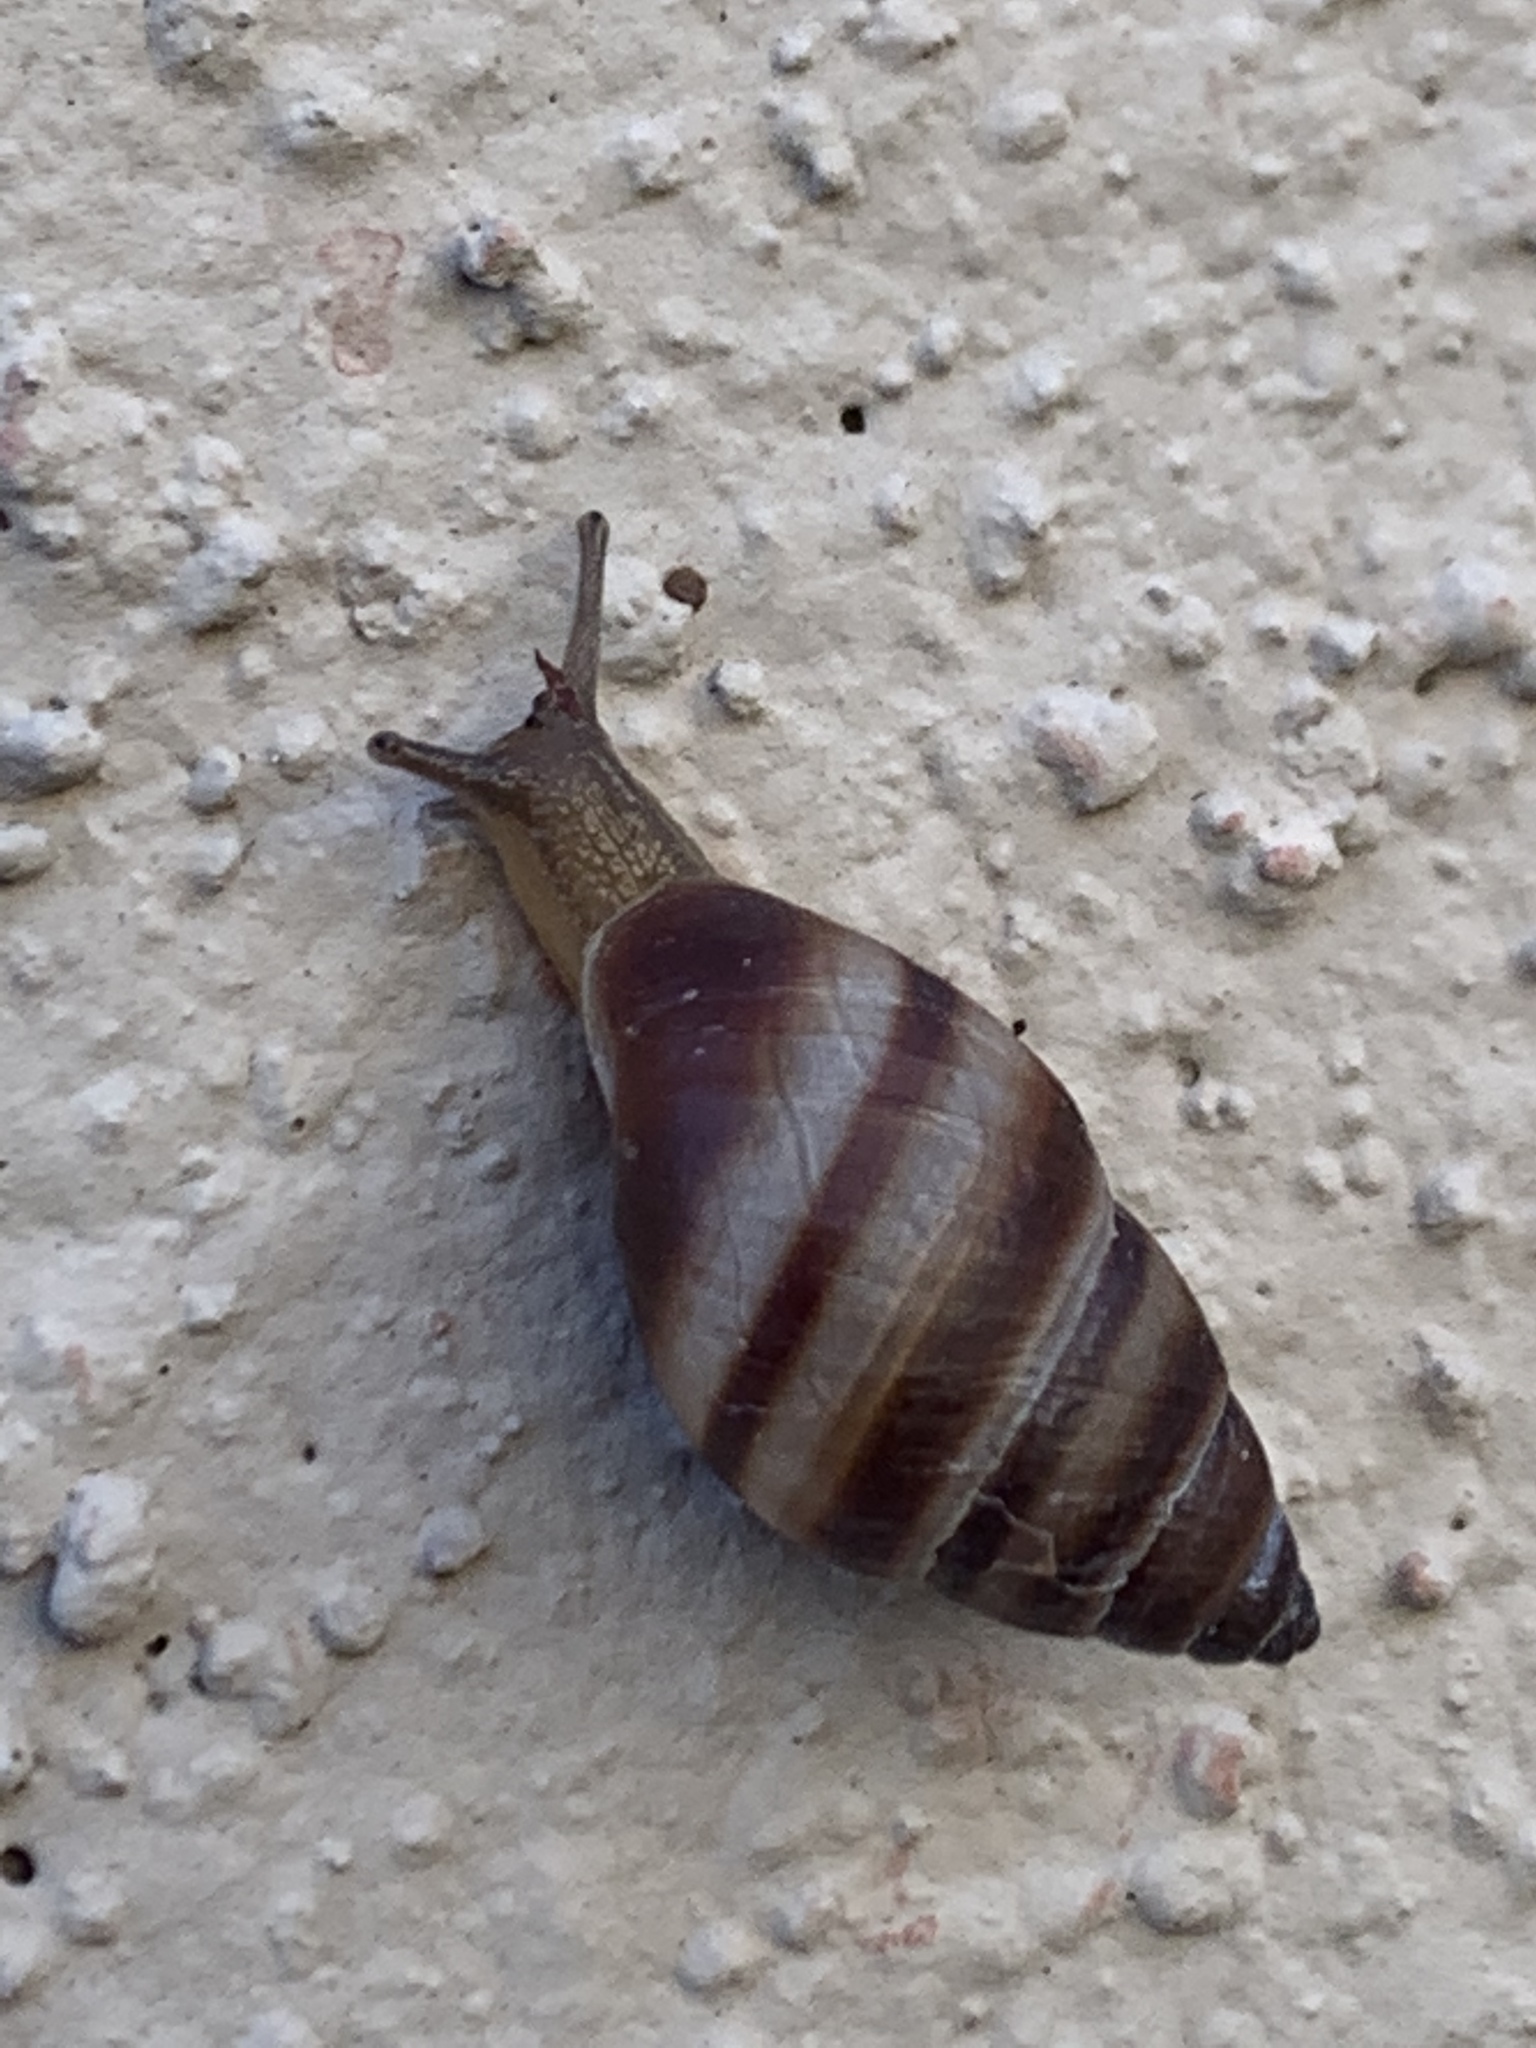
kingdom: Animalia
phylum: Mollusca
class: Gastropoda
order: Stylommatophora
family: Bulimulidae
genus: Bulimulus
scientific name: Bulimulus guadalupensis
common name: West indian bulimulus
